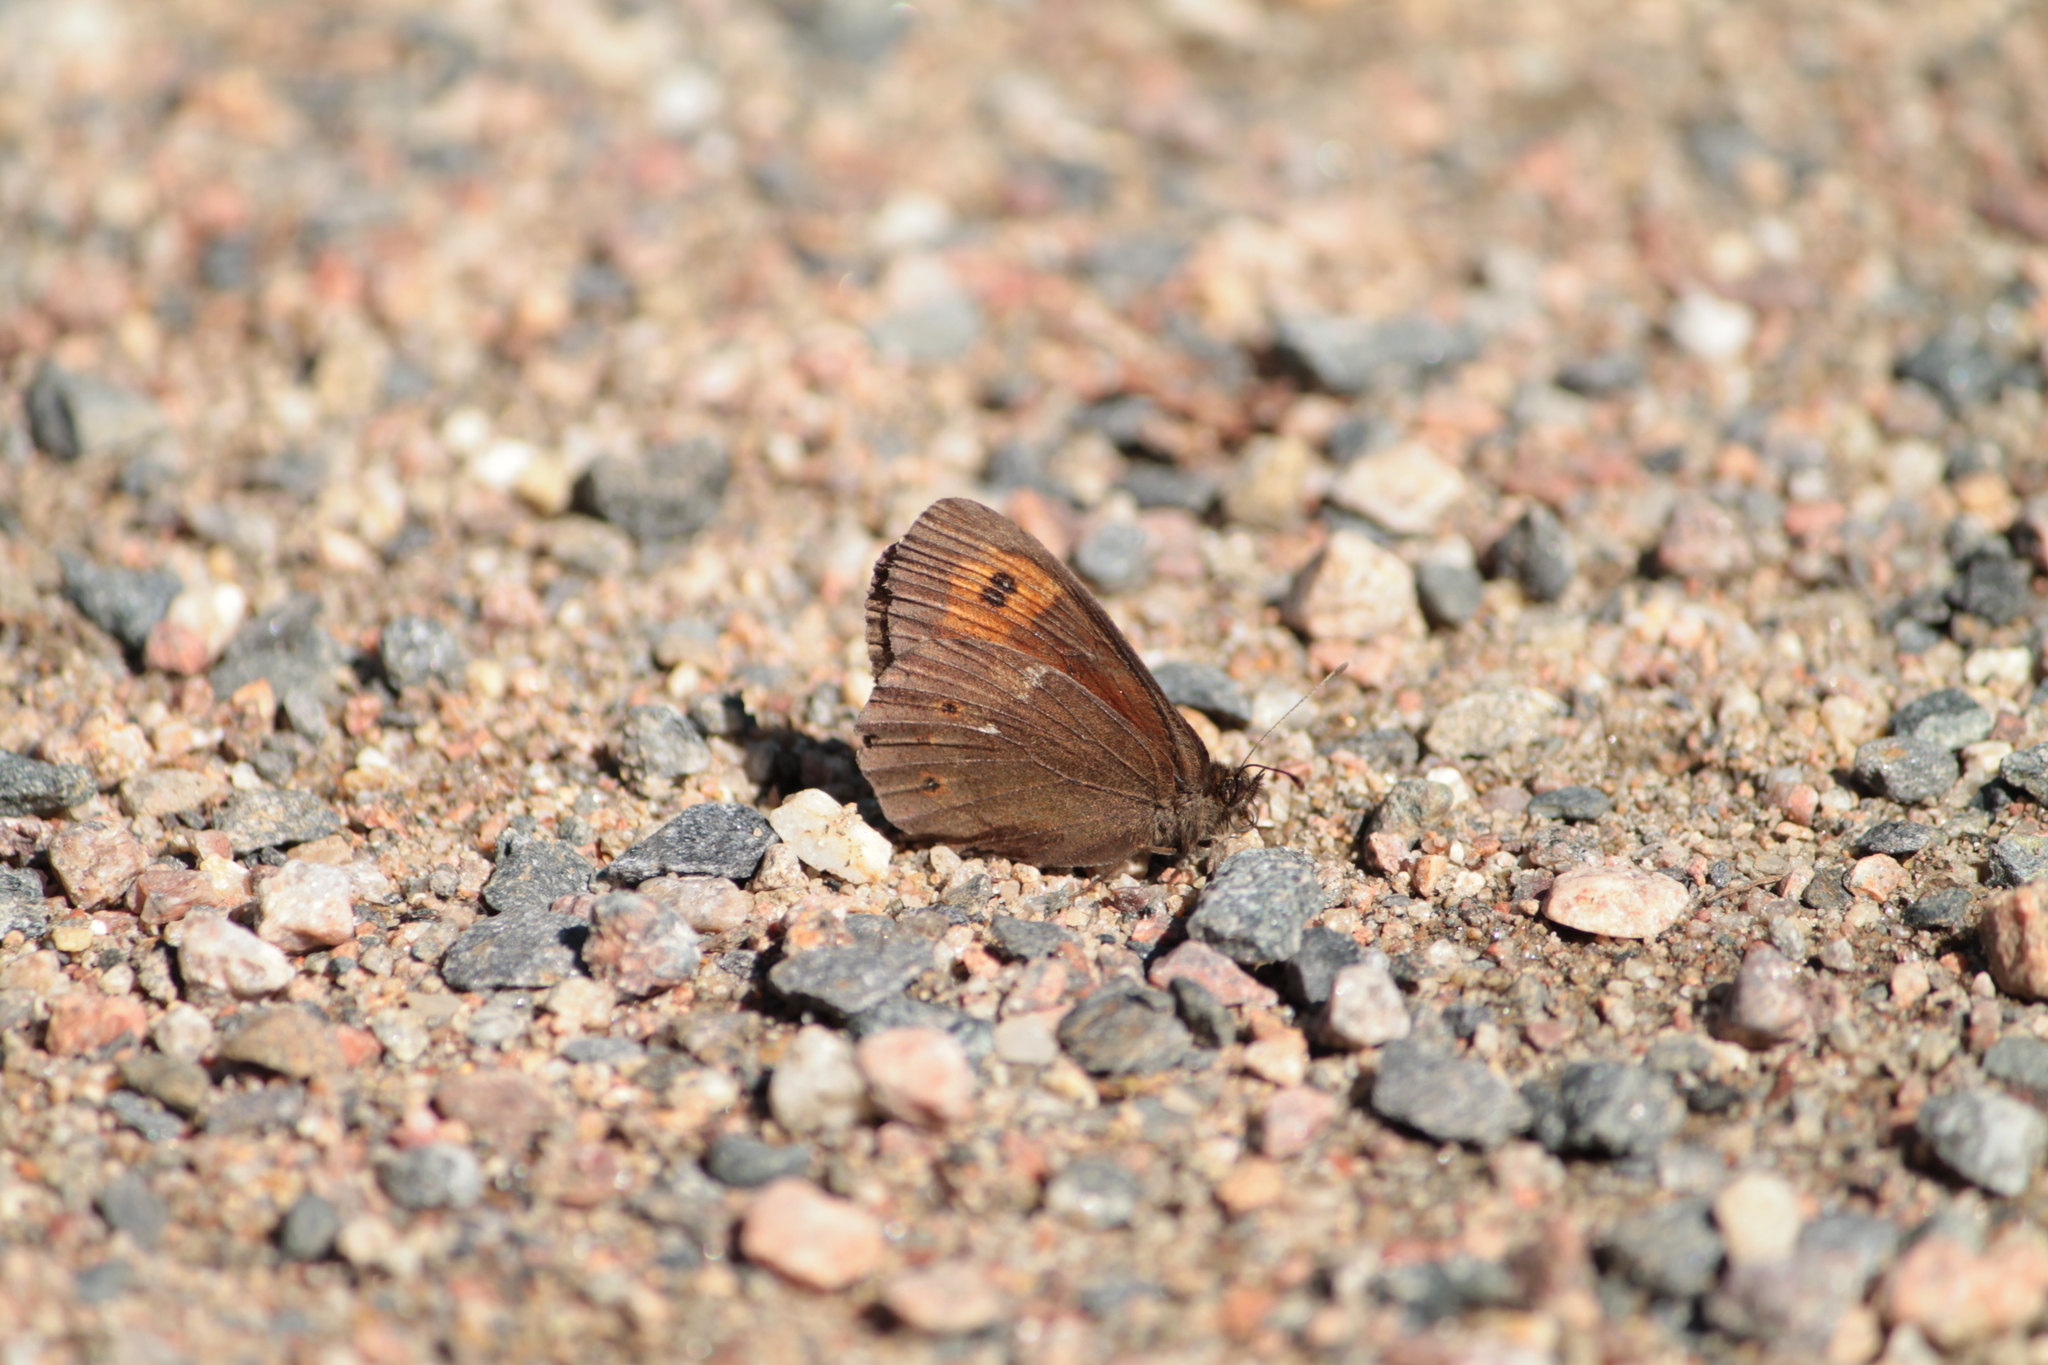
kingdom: Animalia
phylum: Arthropoda
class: Insecta
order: Lepidoptera
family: Nymphalidae
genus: Erebia
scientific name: Erebia ligea
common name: Arran brown
